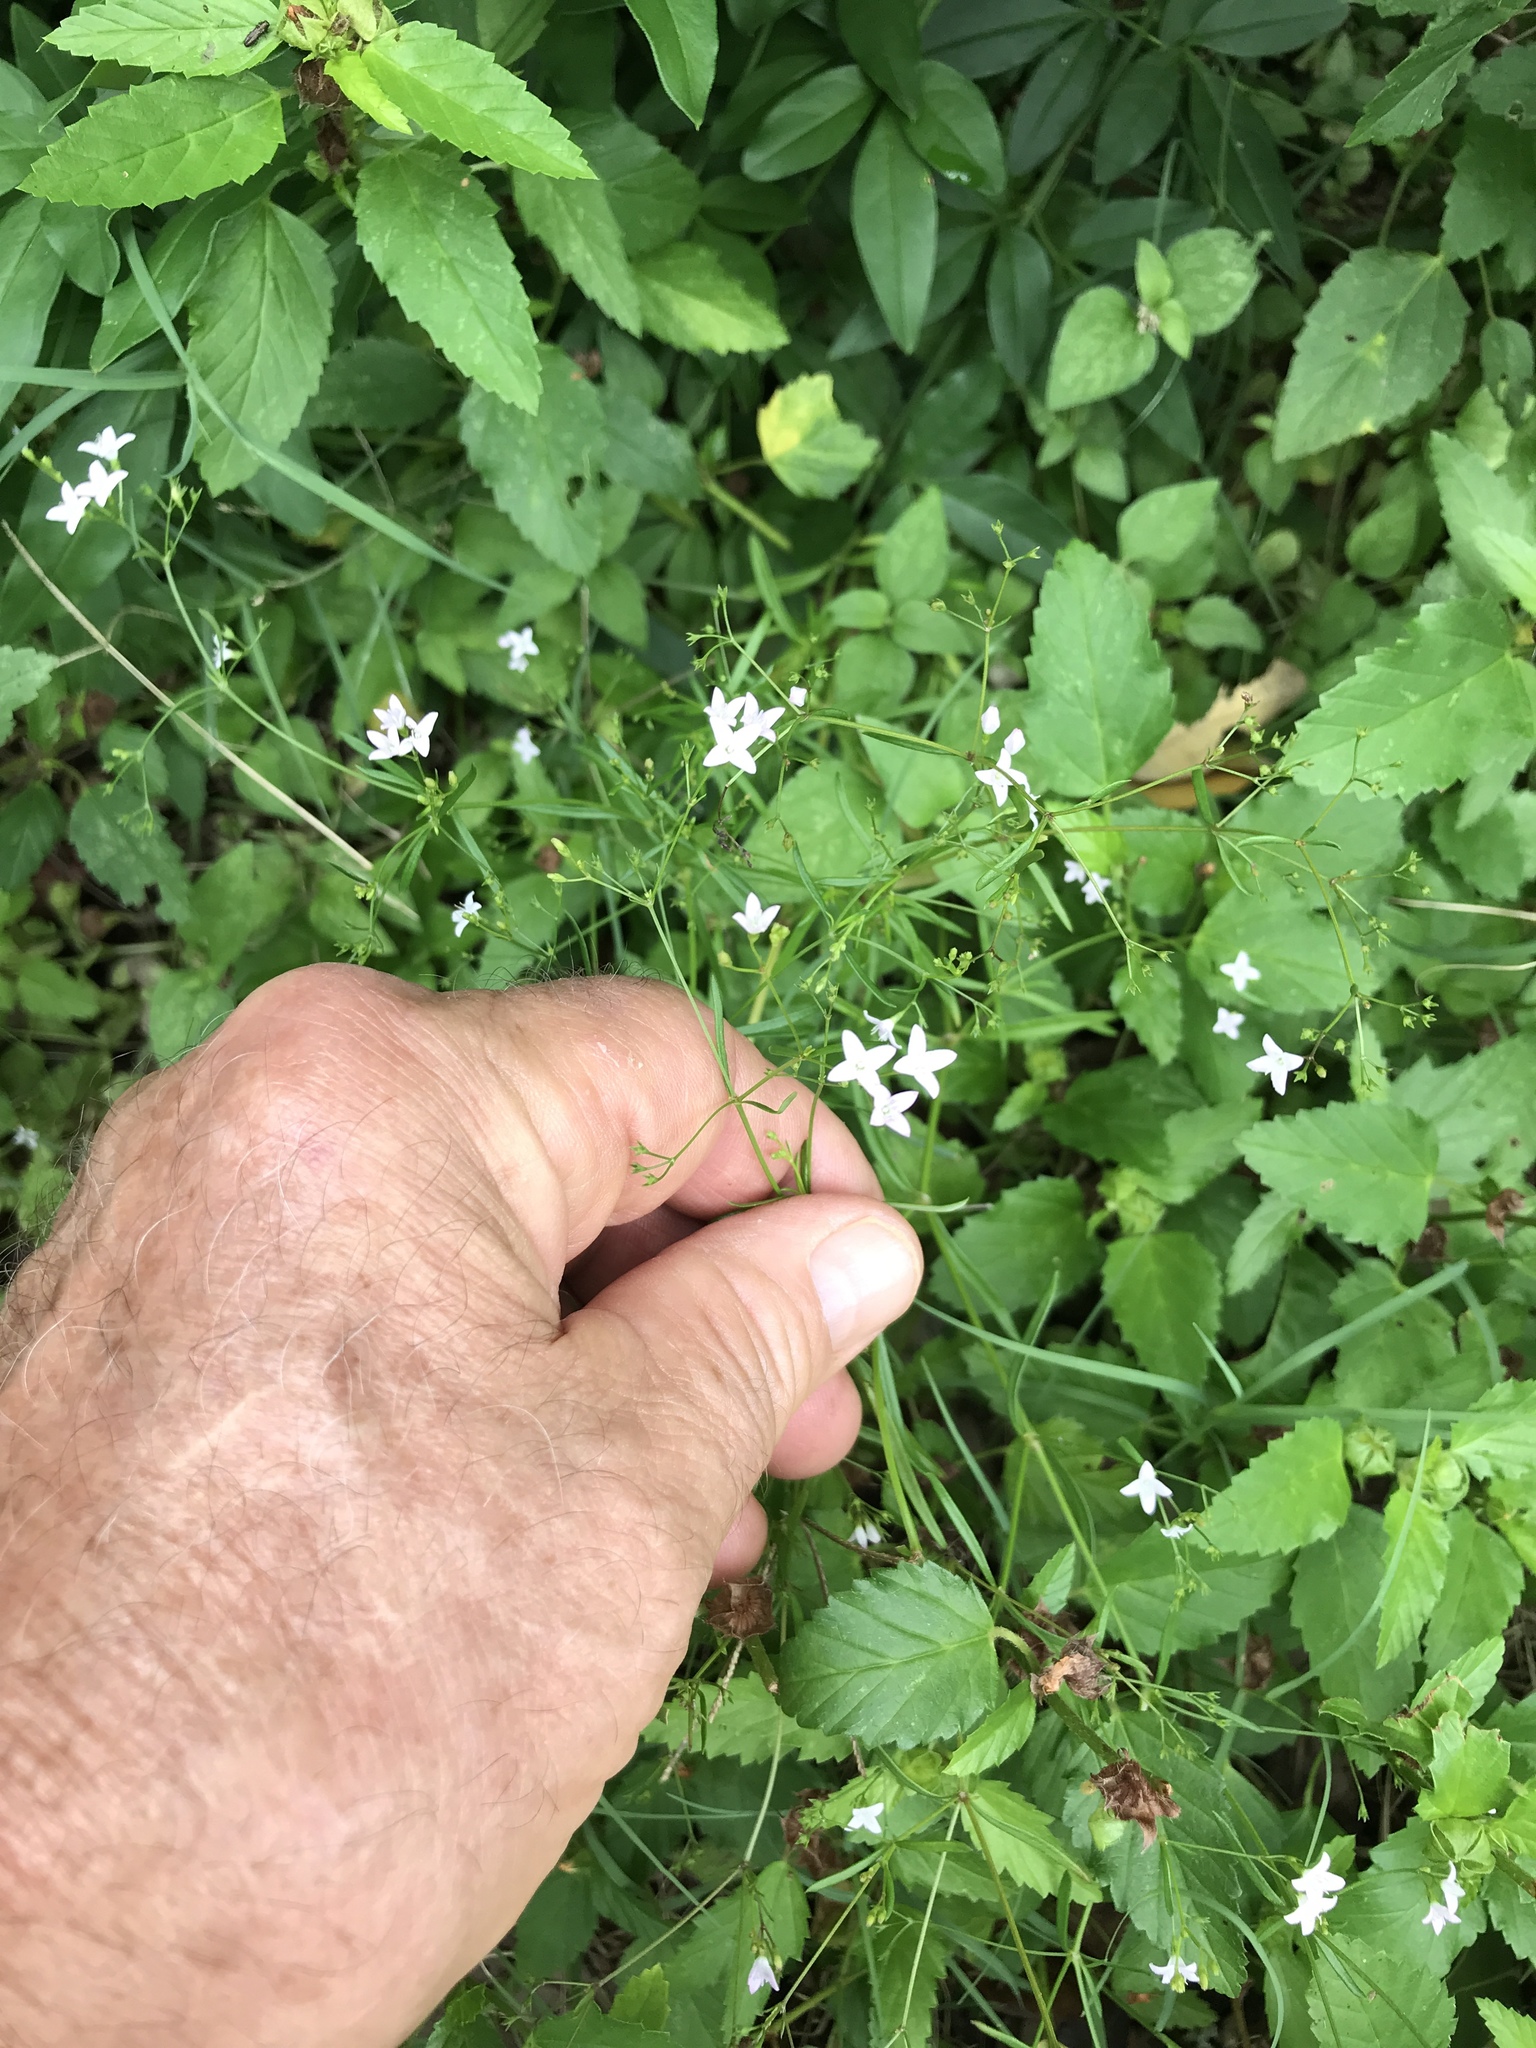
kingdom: Plantae
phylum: Tracheophyta
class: Magnoliopsida
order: Gentianales
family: Rubiaceae
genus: Stenaria
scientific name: Stenaria nigricans
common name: Diamondflowers
